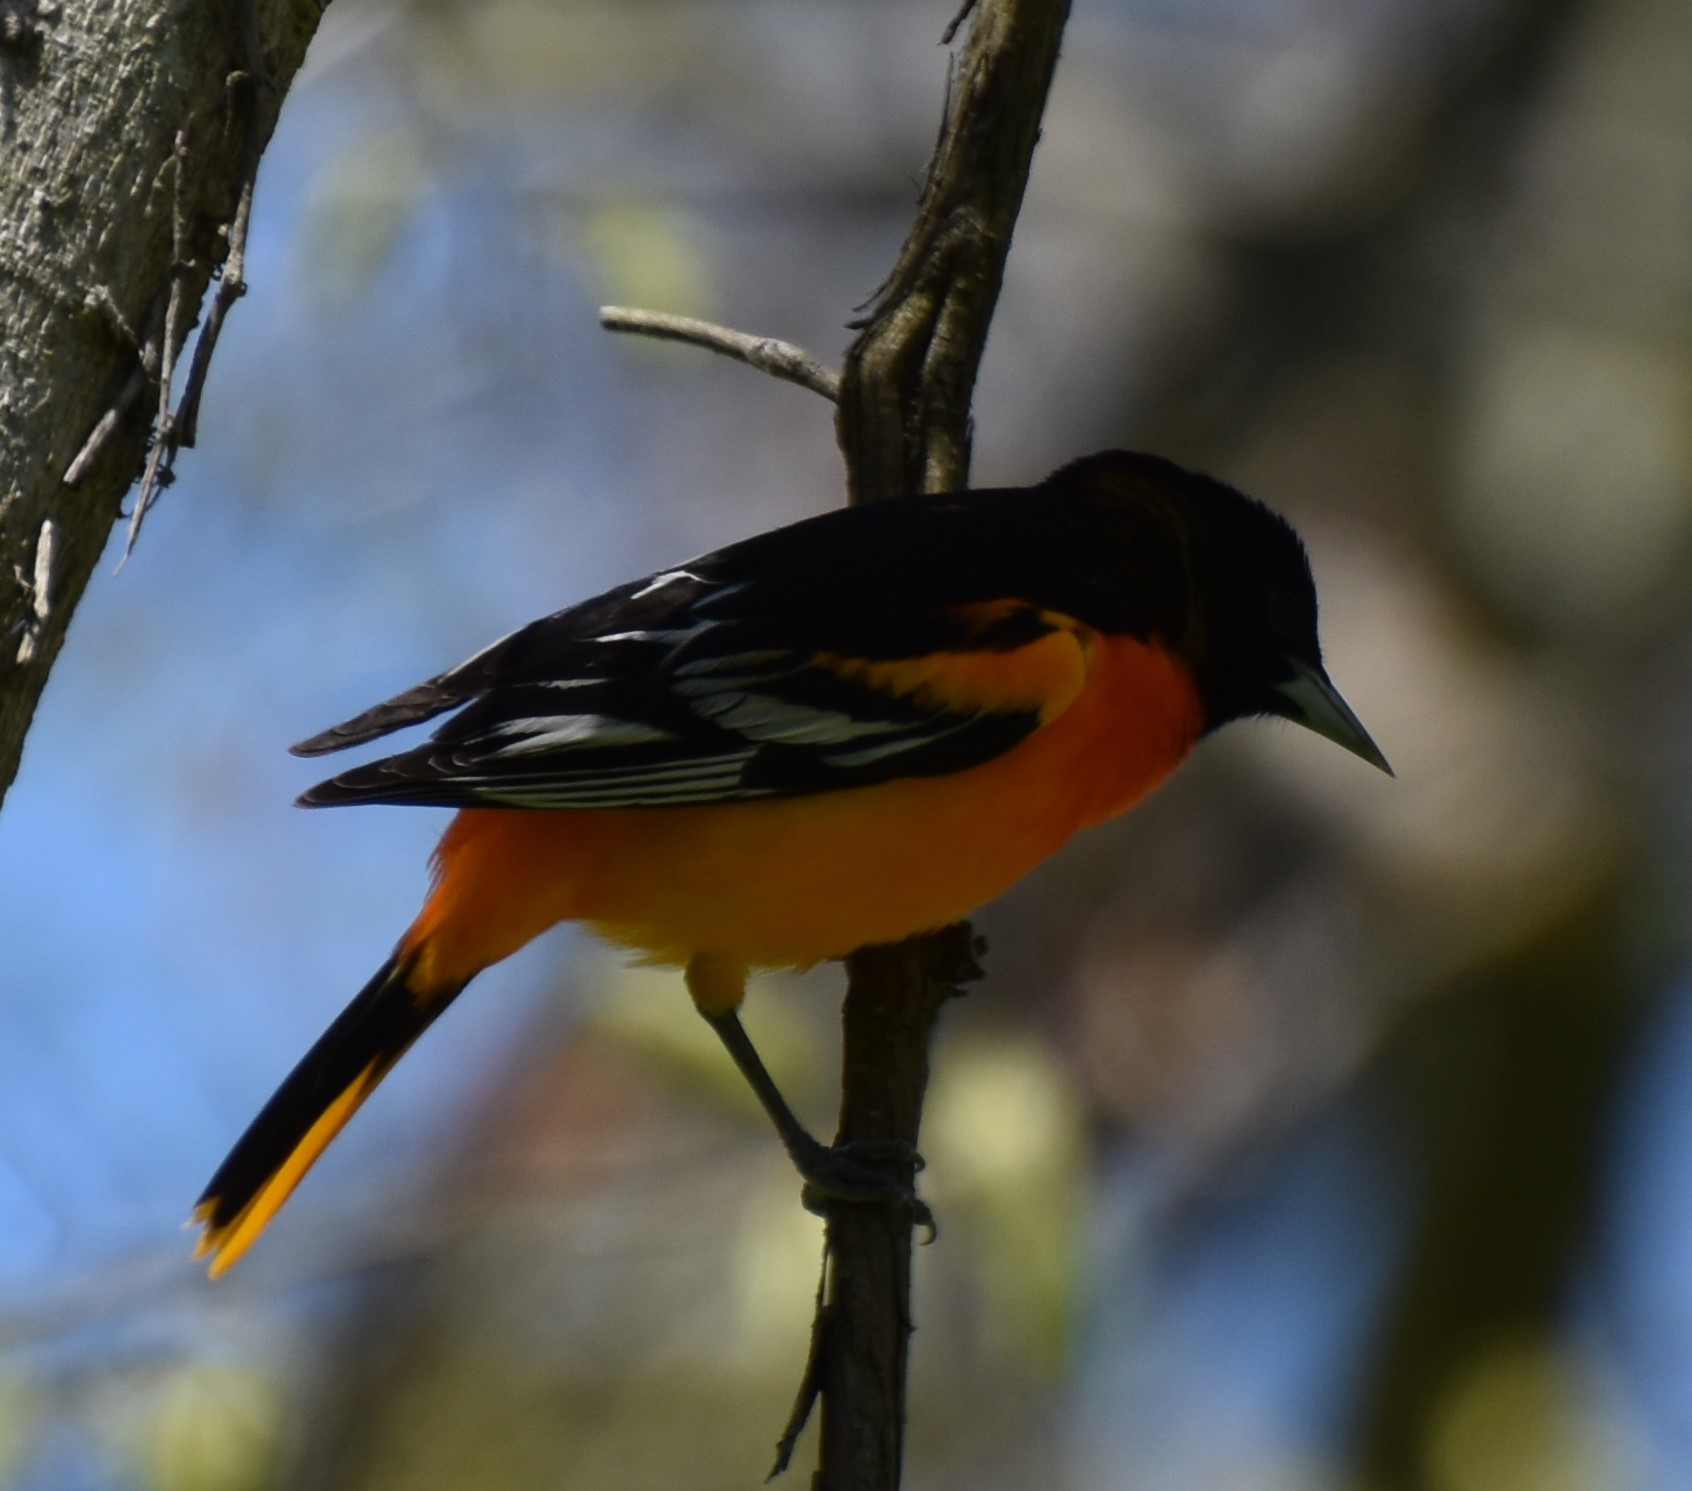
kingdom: Animalia
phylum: Chordata
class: Aves
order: Passeriformes
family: Icteridae
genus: Icterus
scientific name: Icterus galbula
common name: Baltimore oriole
